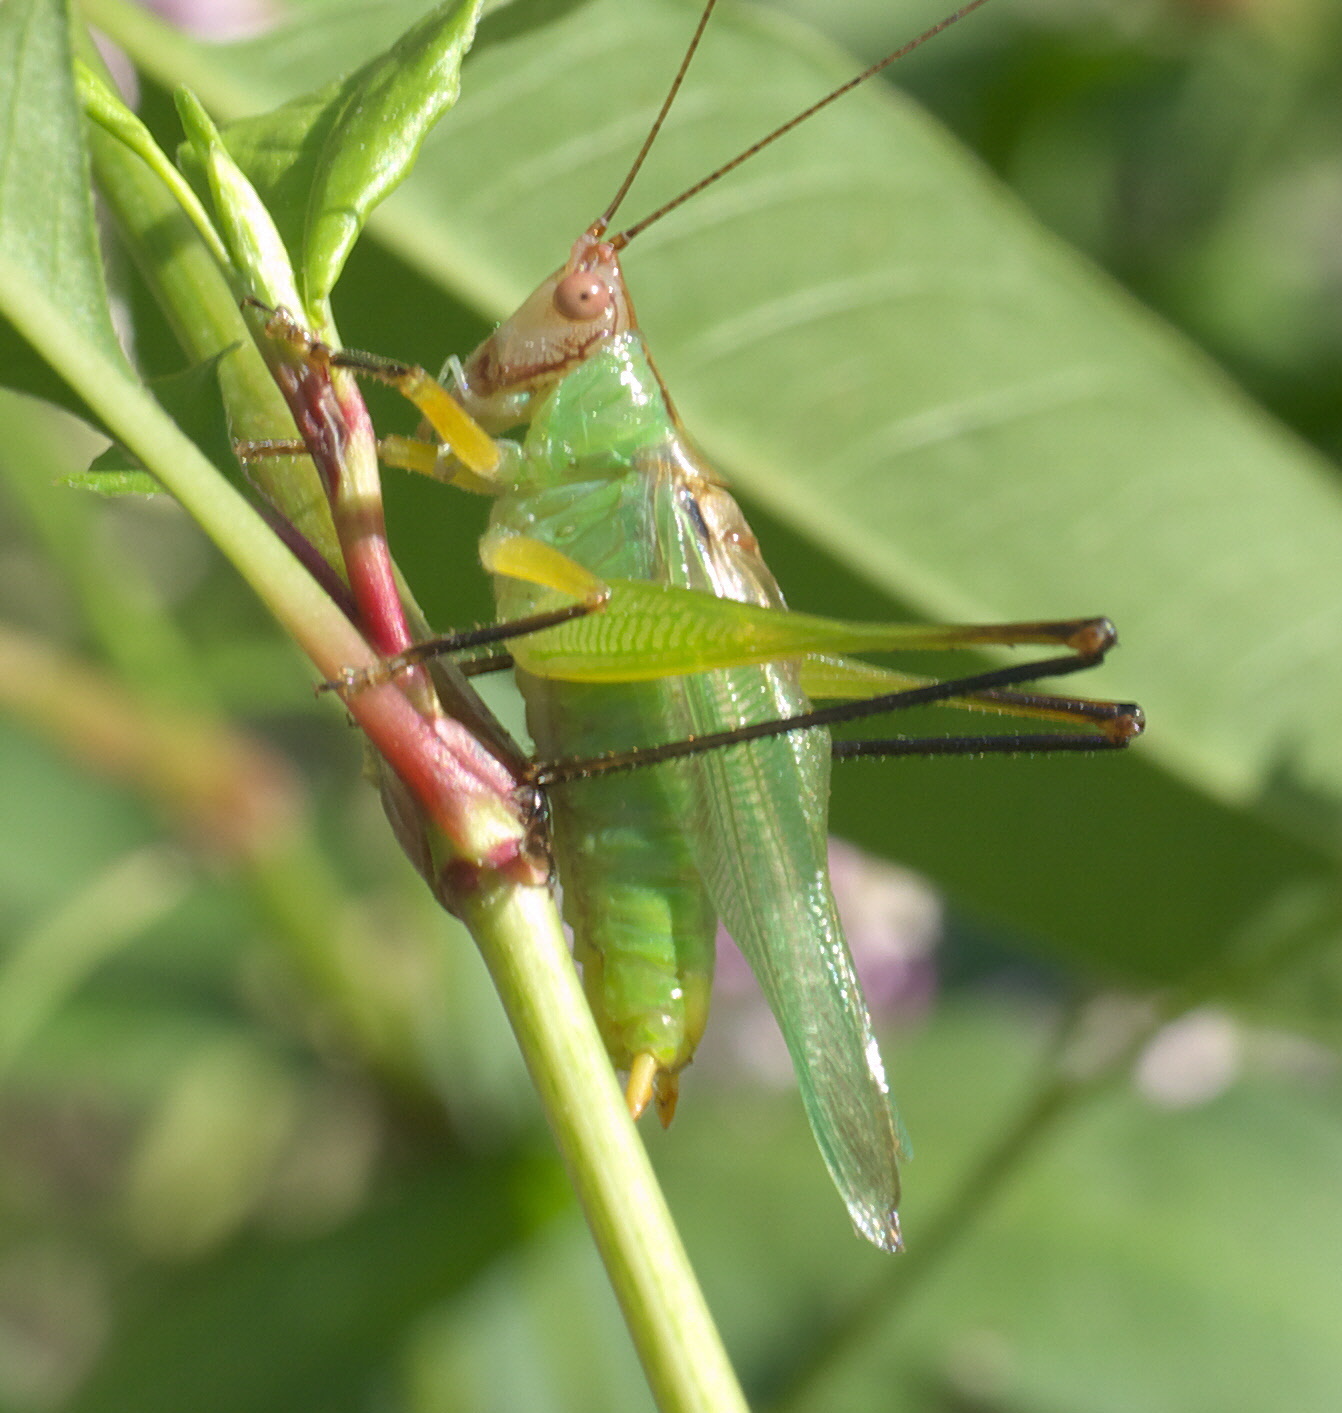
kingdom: Animalia
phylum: Arthropoda
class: Insecta
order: Orthoptera
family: Tettigoniidae
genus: Orchelimum
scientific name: Orchelimum nigripes
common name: Black-legged meadow katydid
